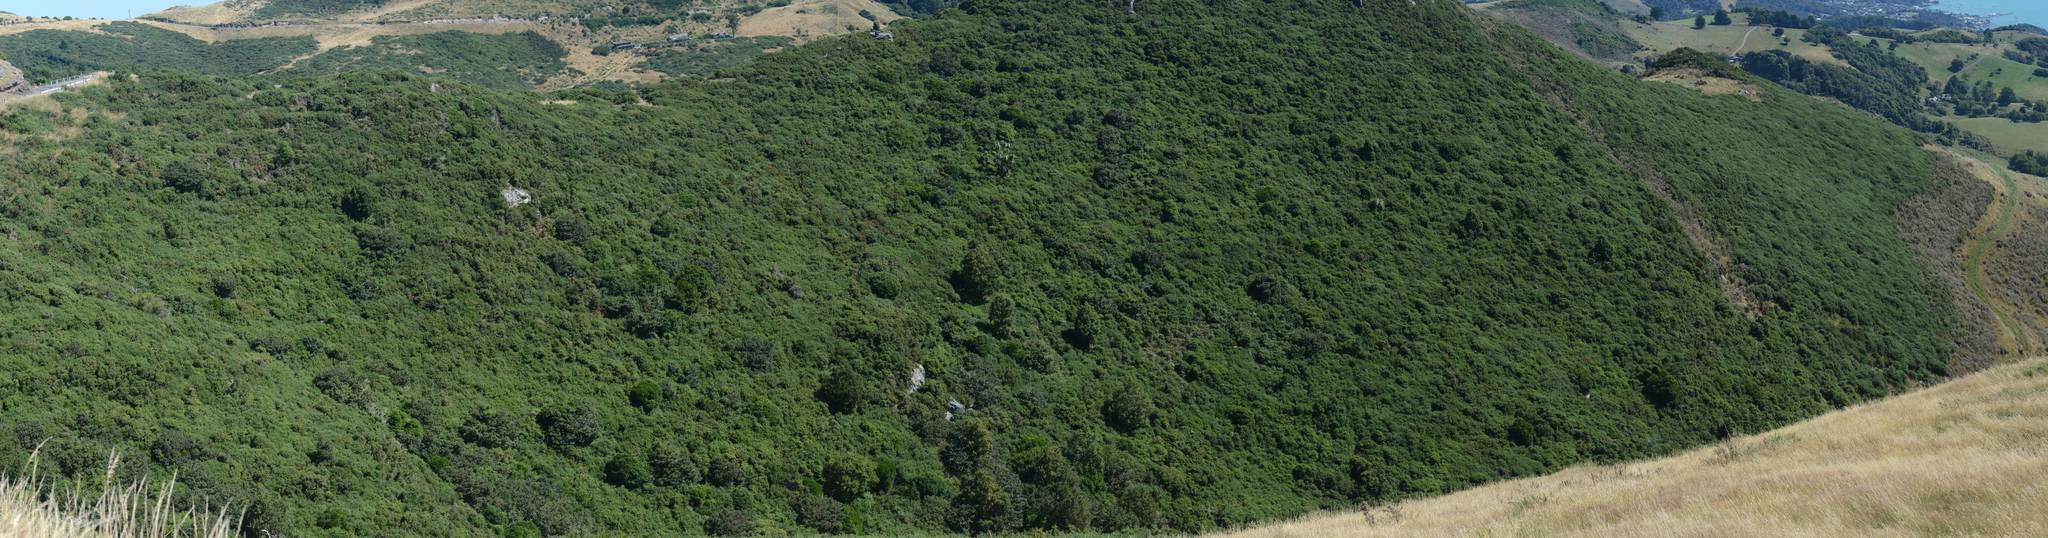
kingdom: Plantae
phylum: Tracheophyta
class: Magnoliopsida
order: Fabales
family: Fabaceae
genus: Ulex
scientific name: Ulex europaeus
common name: Common gorse
